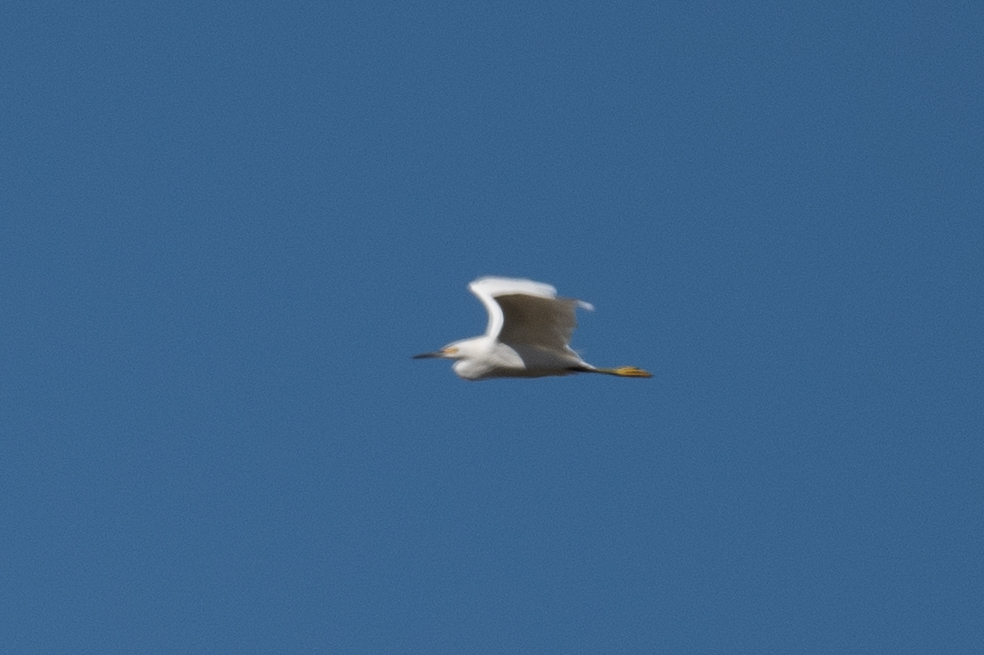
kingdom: Animalia
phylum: Chordata
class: Aves
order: Pelecaniformes
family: Ardeidae
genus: Egretta
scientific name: Egretta thula
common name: Snowy egret
